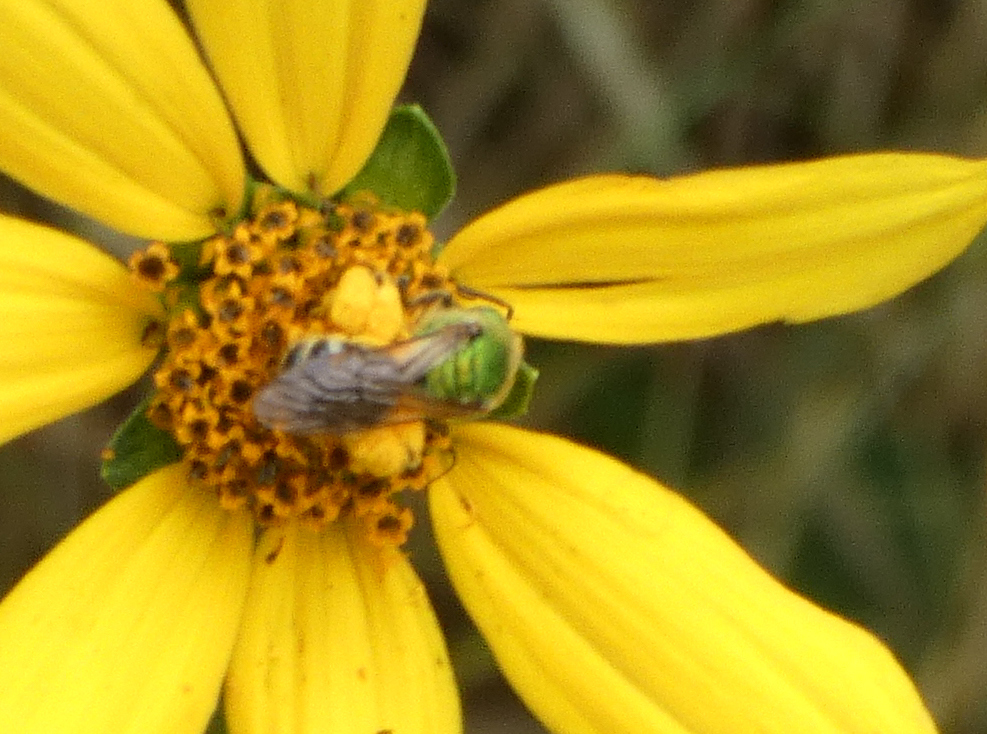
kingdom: Animalia
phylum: Arthropoda
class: Insecta
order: Hymenoptera
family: Halictidae
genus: Agapostemon
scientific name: Agapostemon virescens
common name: Bicolored striped sweat bee
